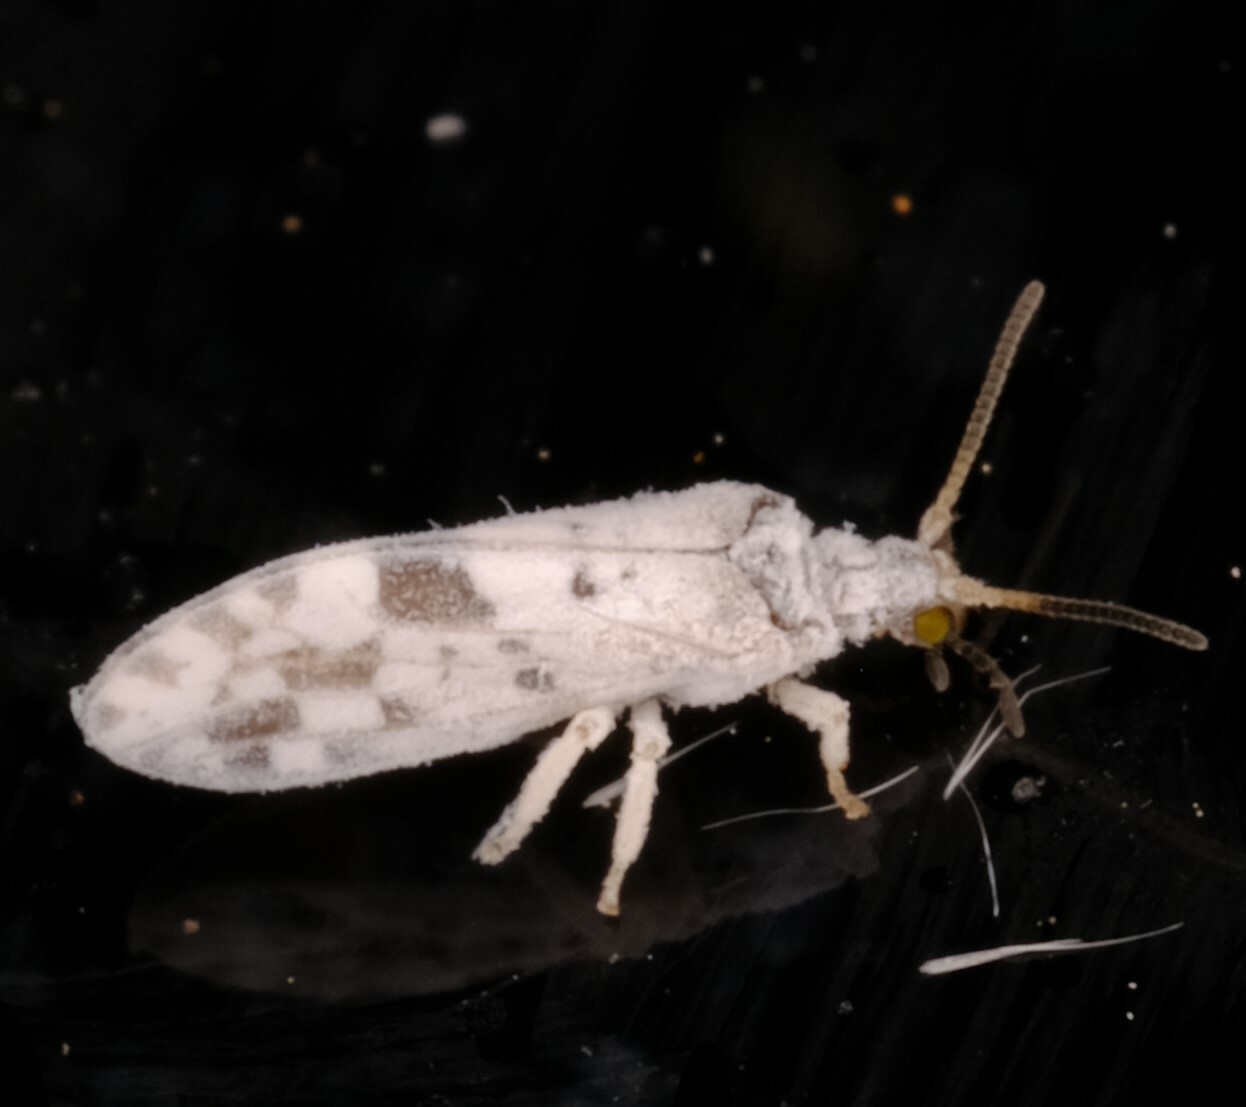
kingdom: Animalia
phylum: Arthropoda
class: Insecta
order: Neuroptera
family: Coniopterygidae
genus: Heteroconis
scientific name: Heteroconis ornata
